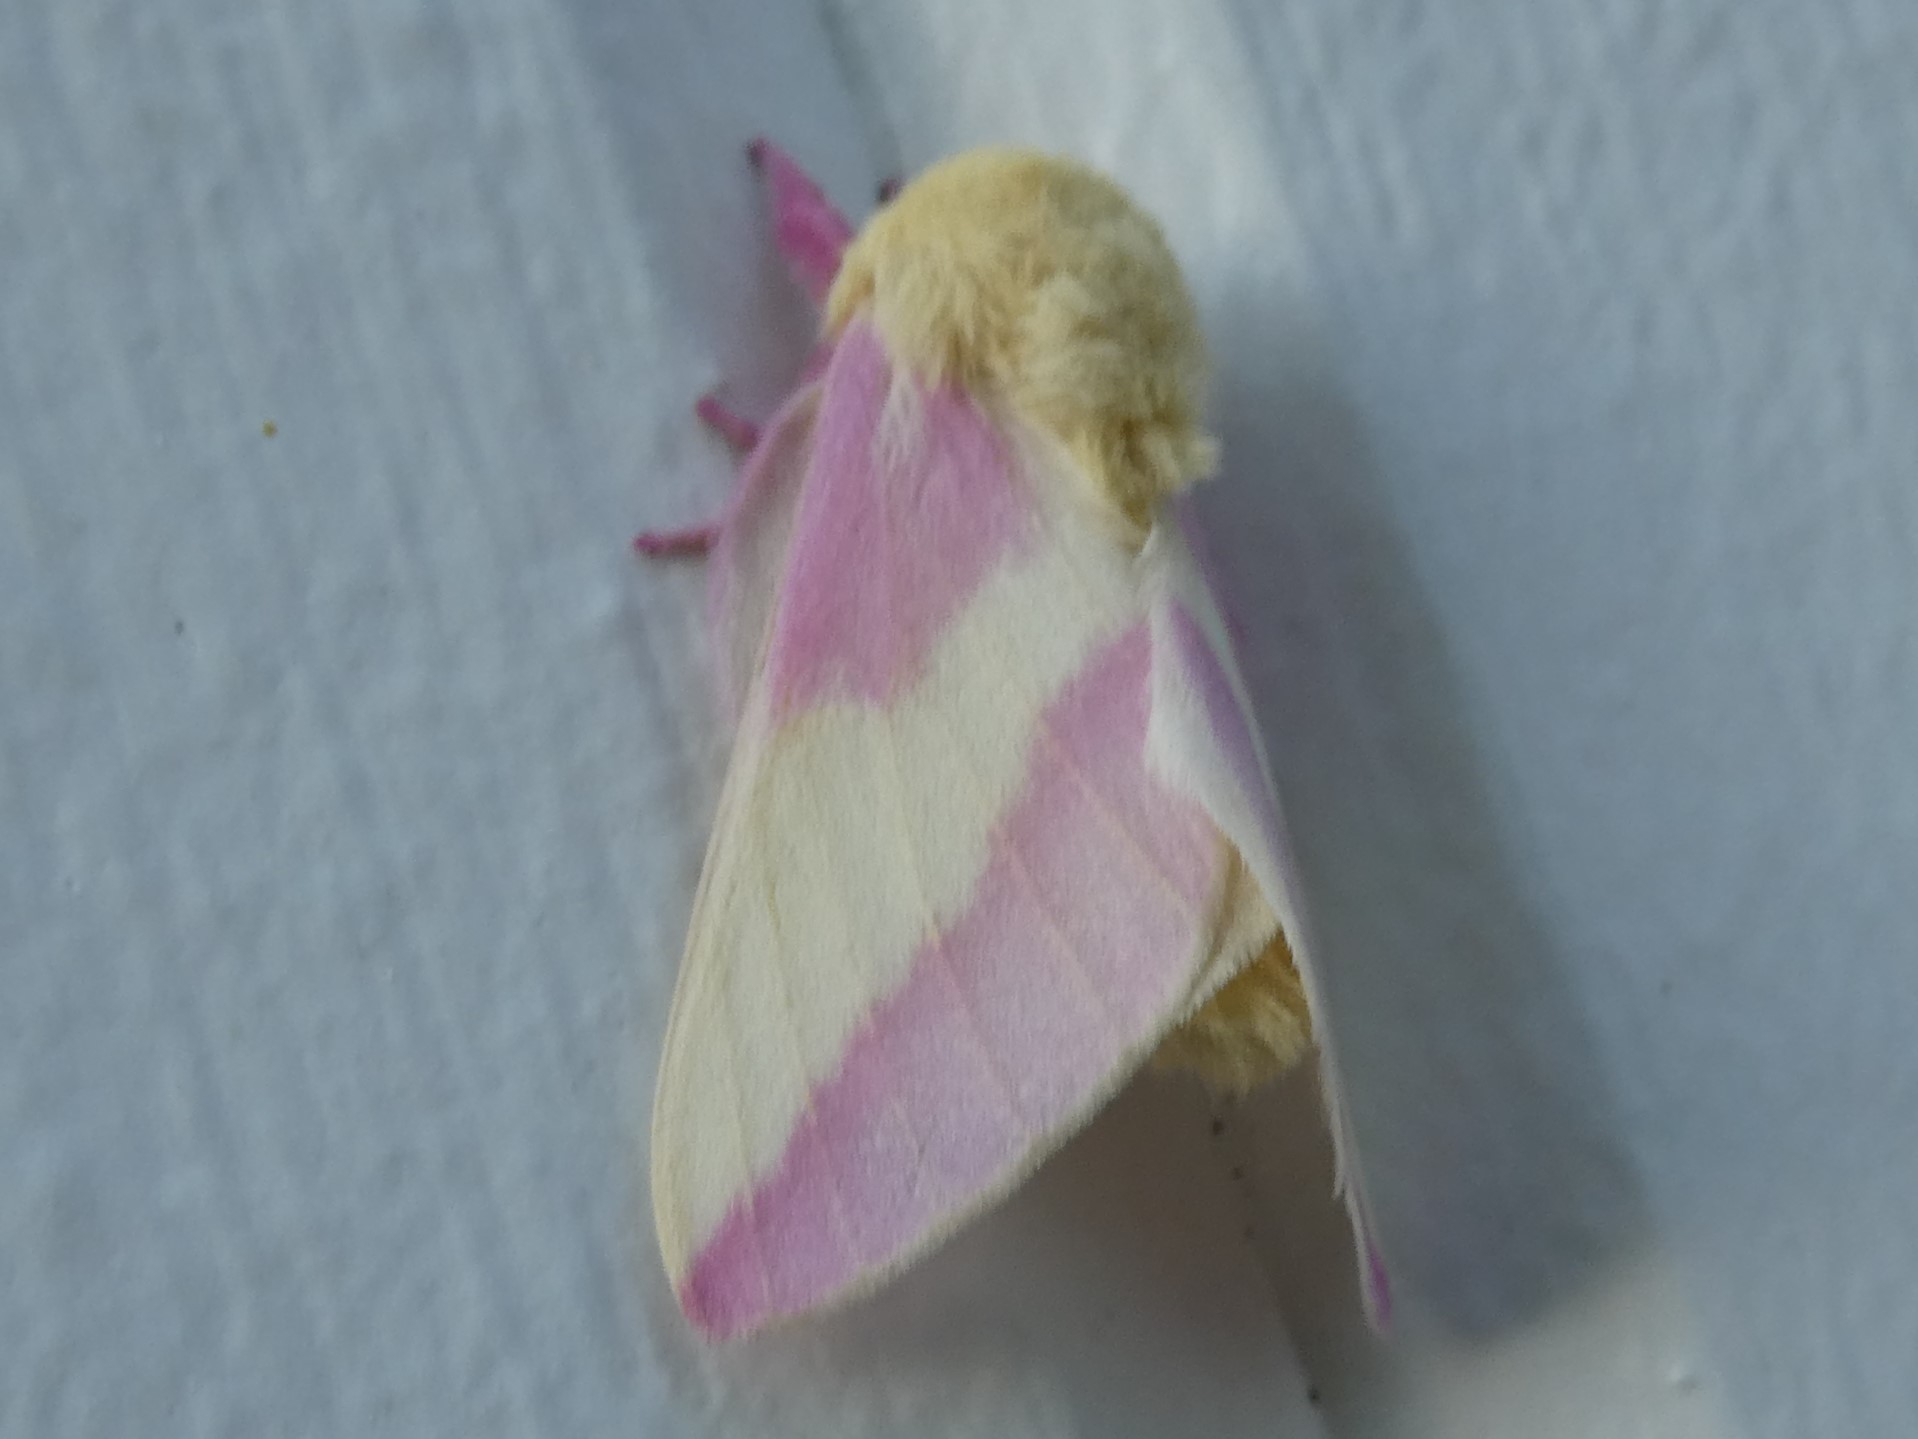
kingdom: Animalia
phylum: Arthropoda
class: Insecta
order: Lepidoptera
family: Saturniidae
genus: Dryocampa
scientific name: Dryocampa rubicunda
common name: Rosy maple moth
